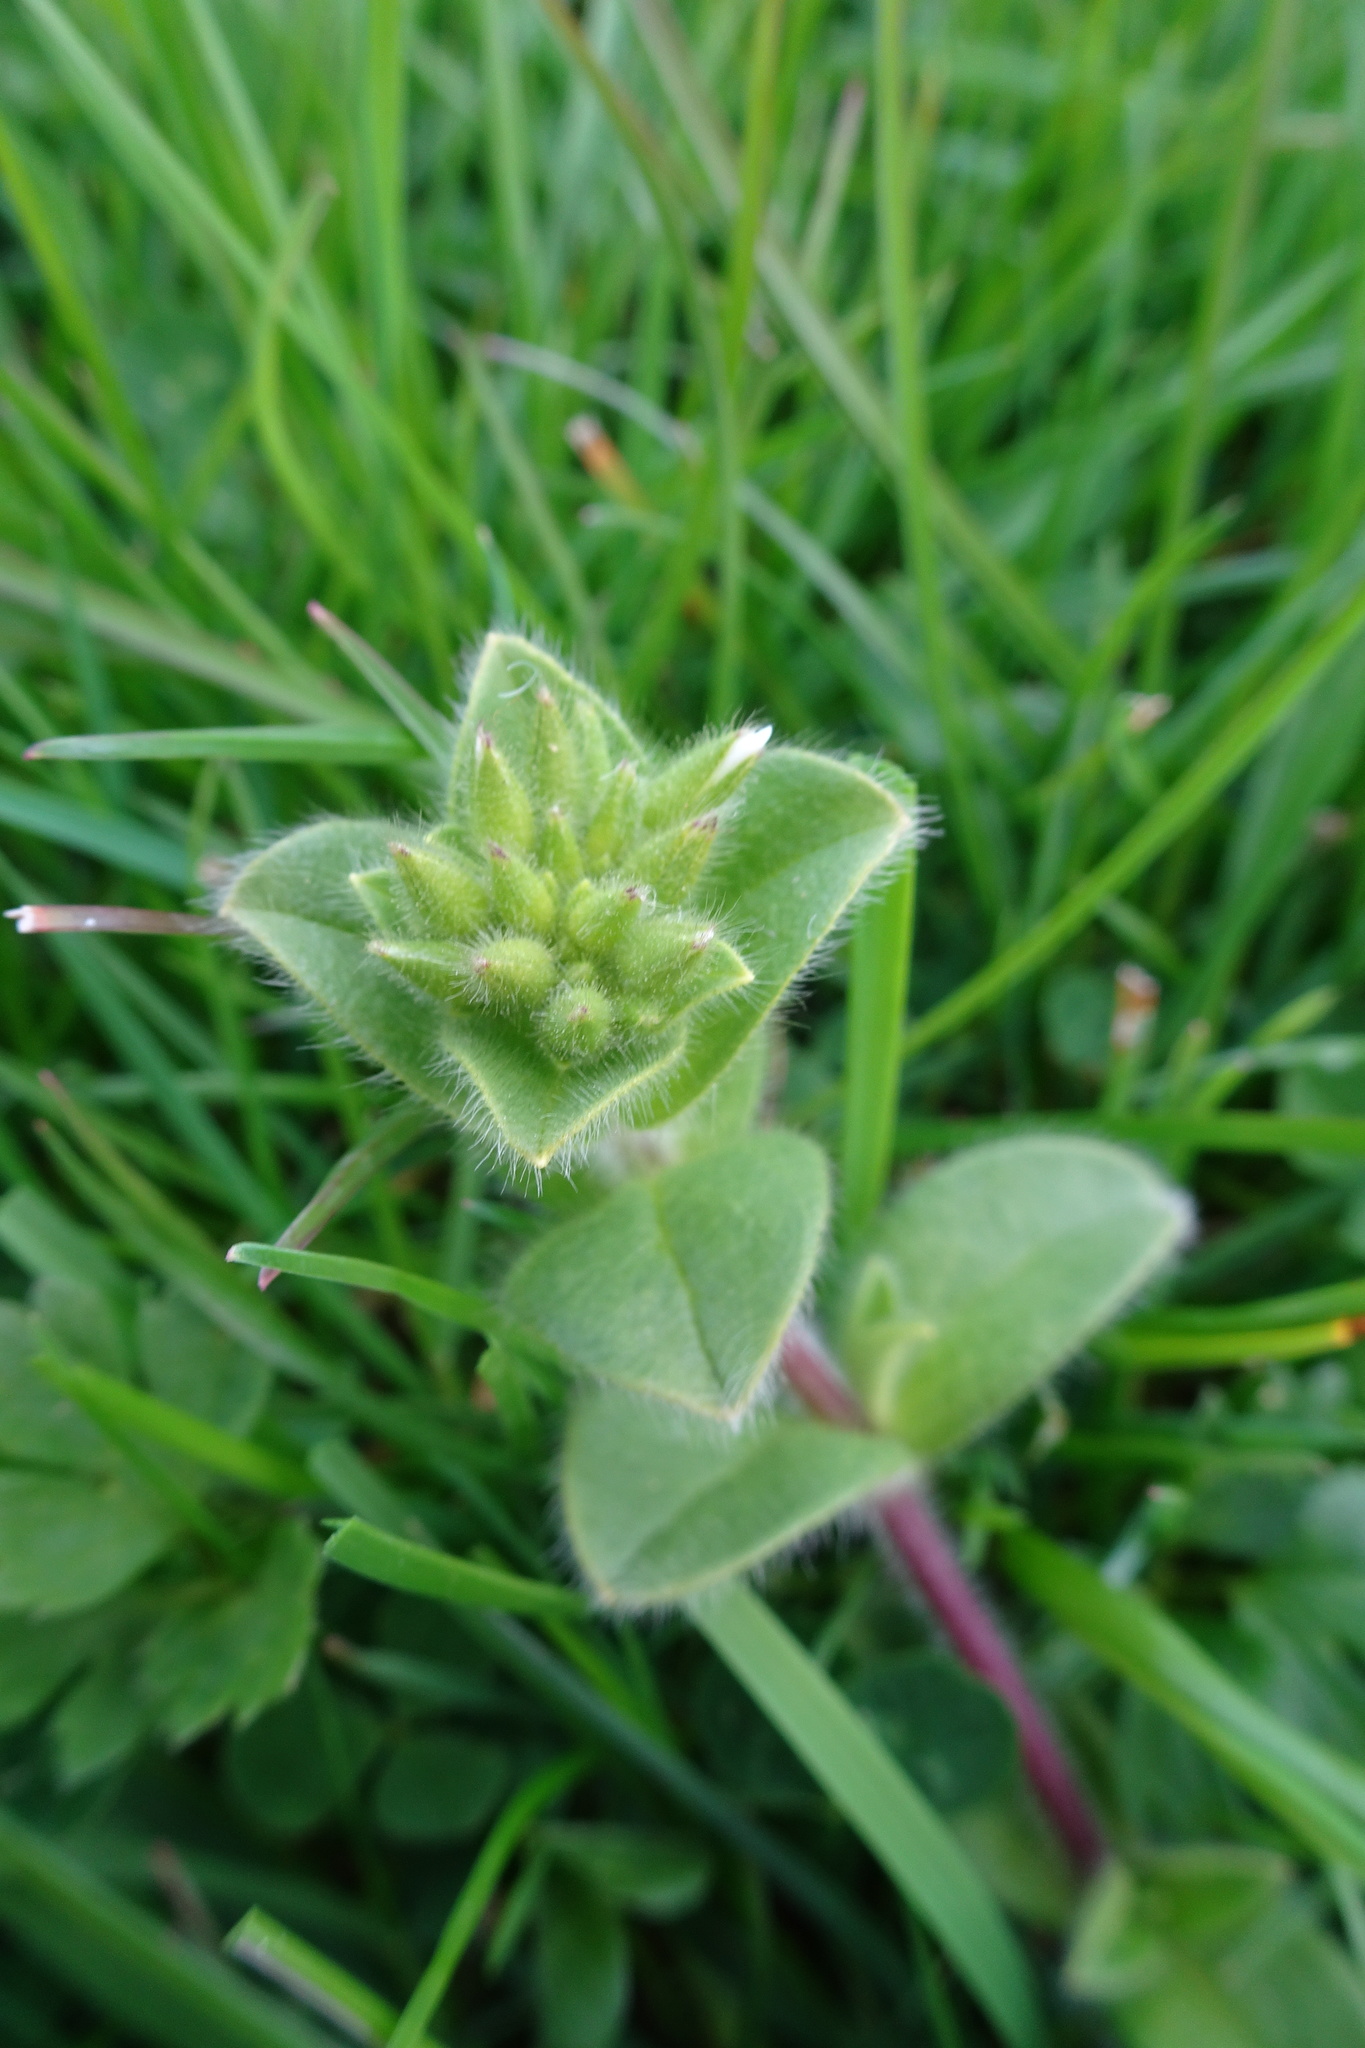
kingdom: Plantae
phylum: Tracheophyta
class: Magnoliopsida
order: Caryophyllales
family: Caryophyllaceae
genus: Cerastium
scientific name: Cerastium glomeratum
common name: Sticky chickweed
